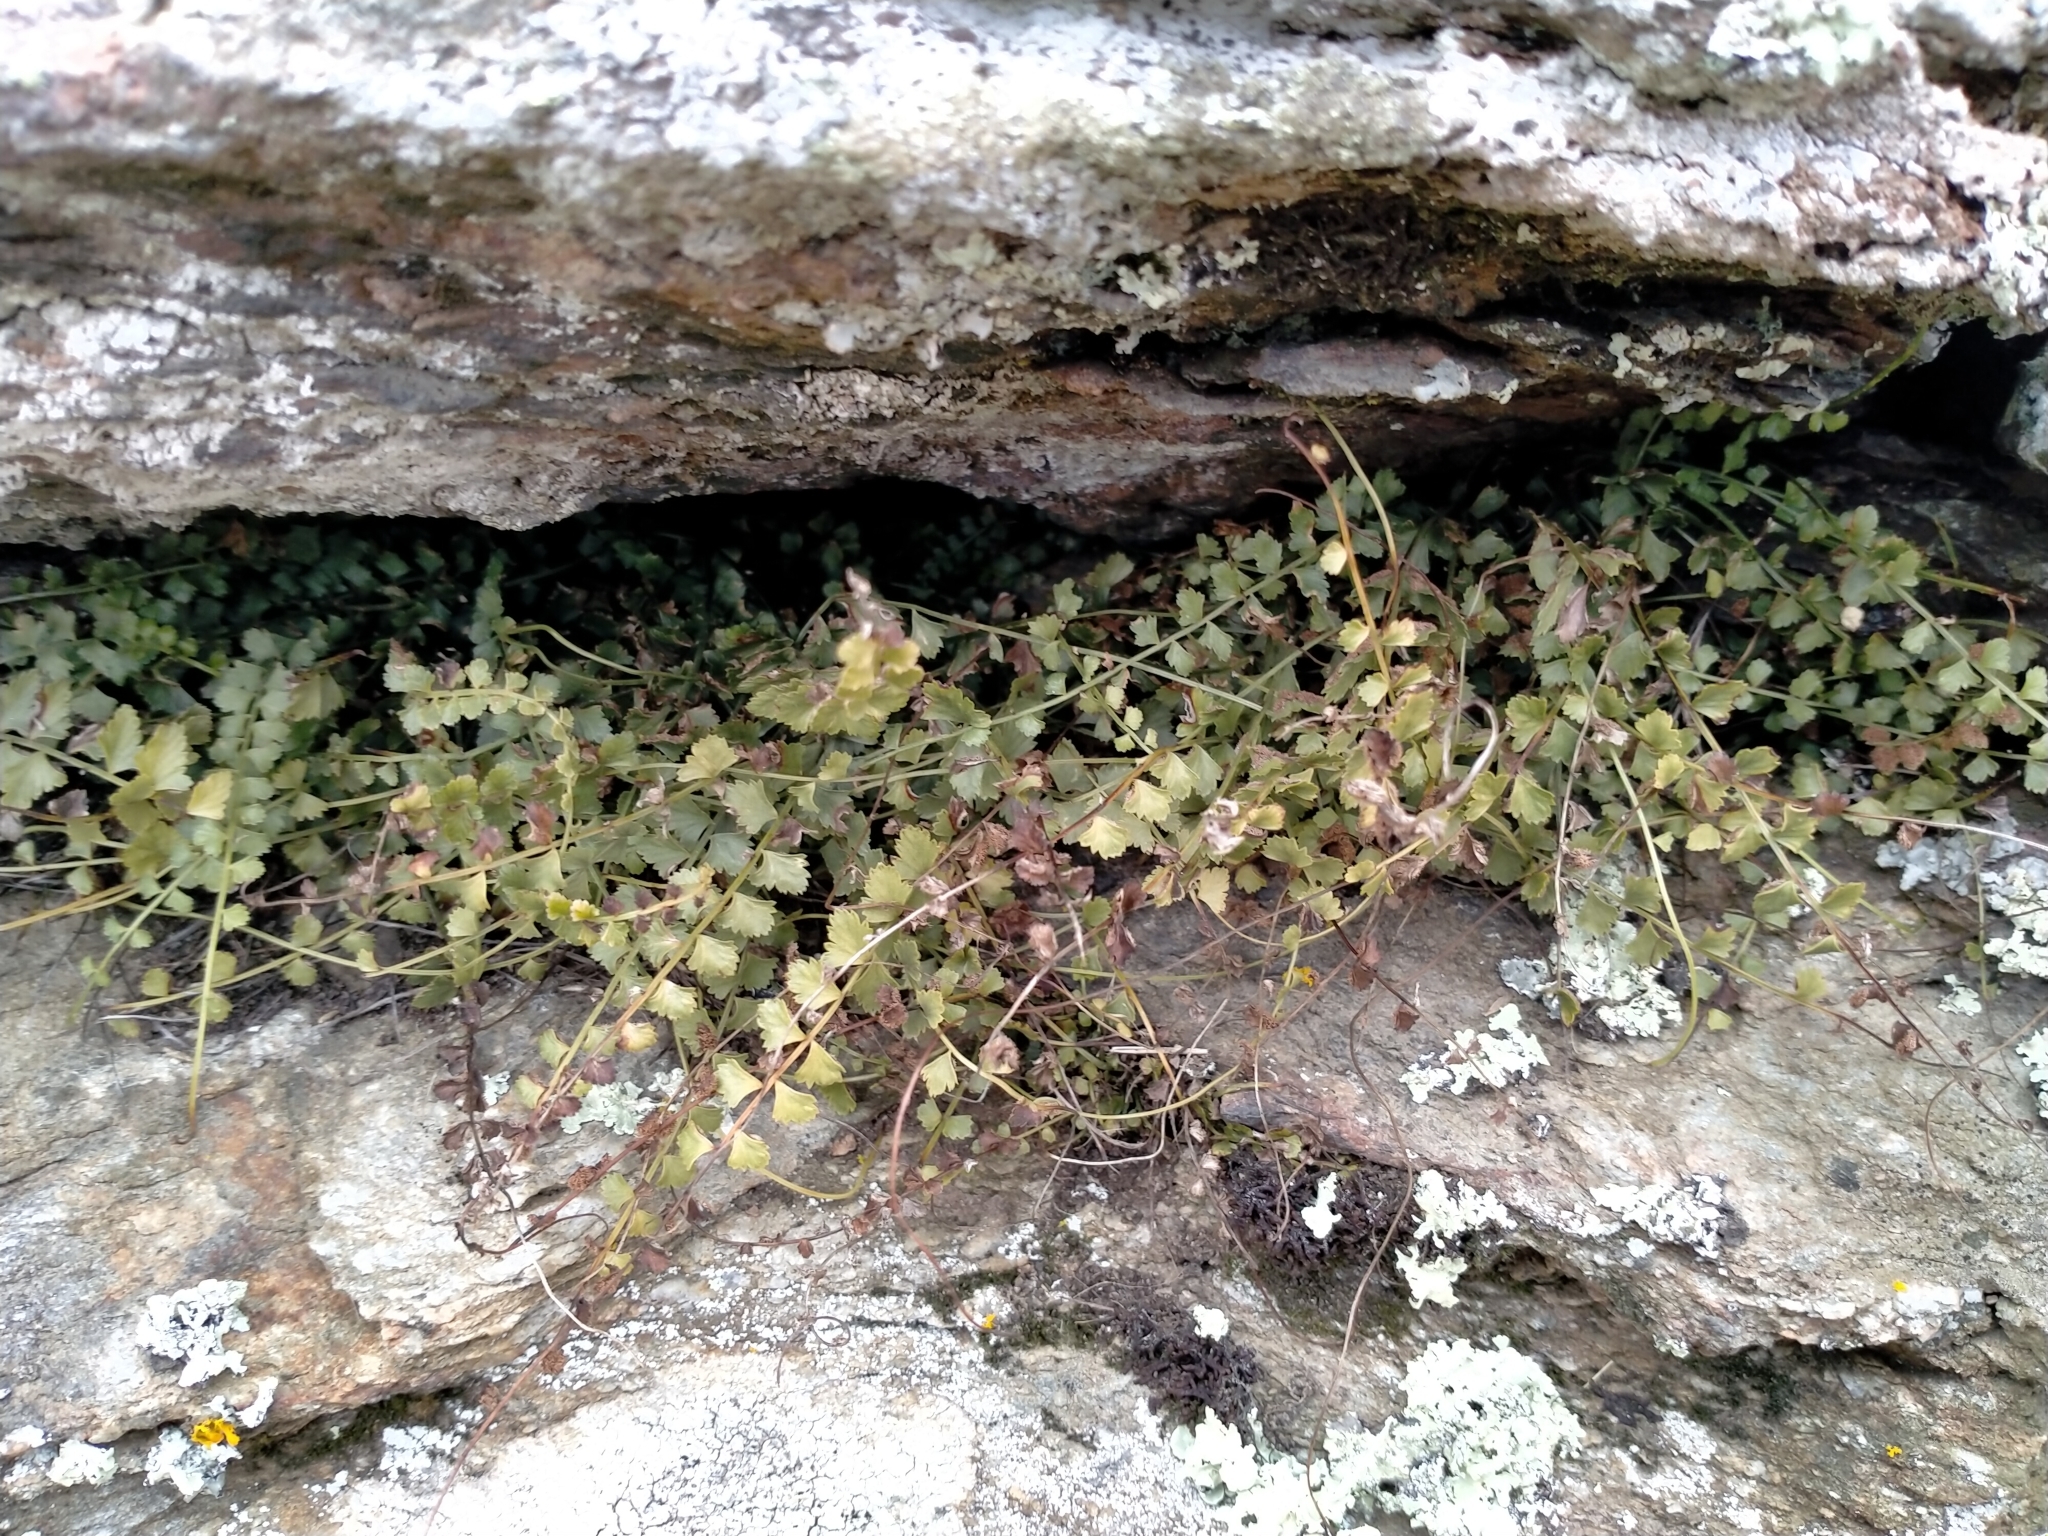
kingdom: Plantae
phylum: Tracheophyta
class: Polypodiopsida
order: Polypodiales
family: Aspleniaceae
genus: Asplenium
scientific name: Asplenium flabellifolium
